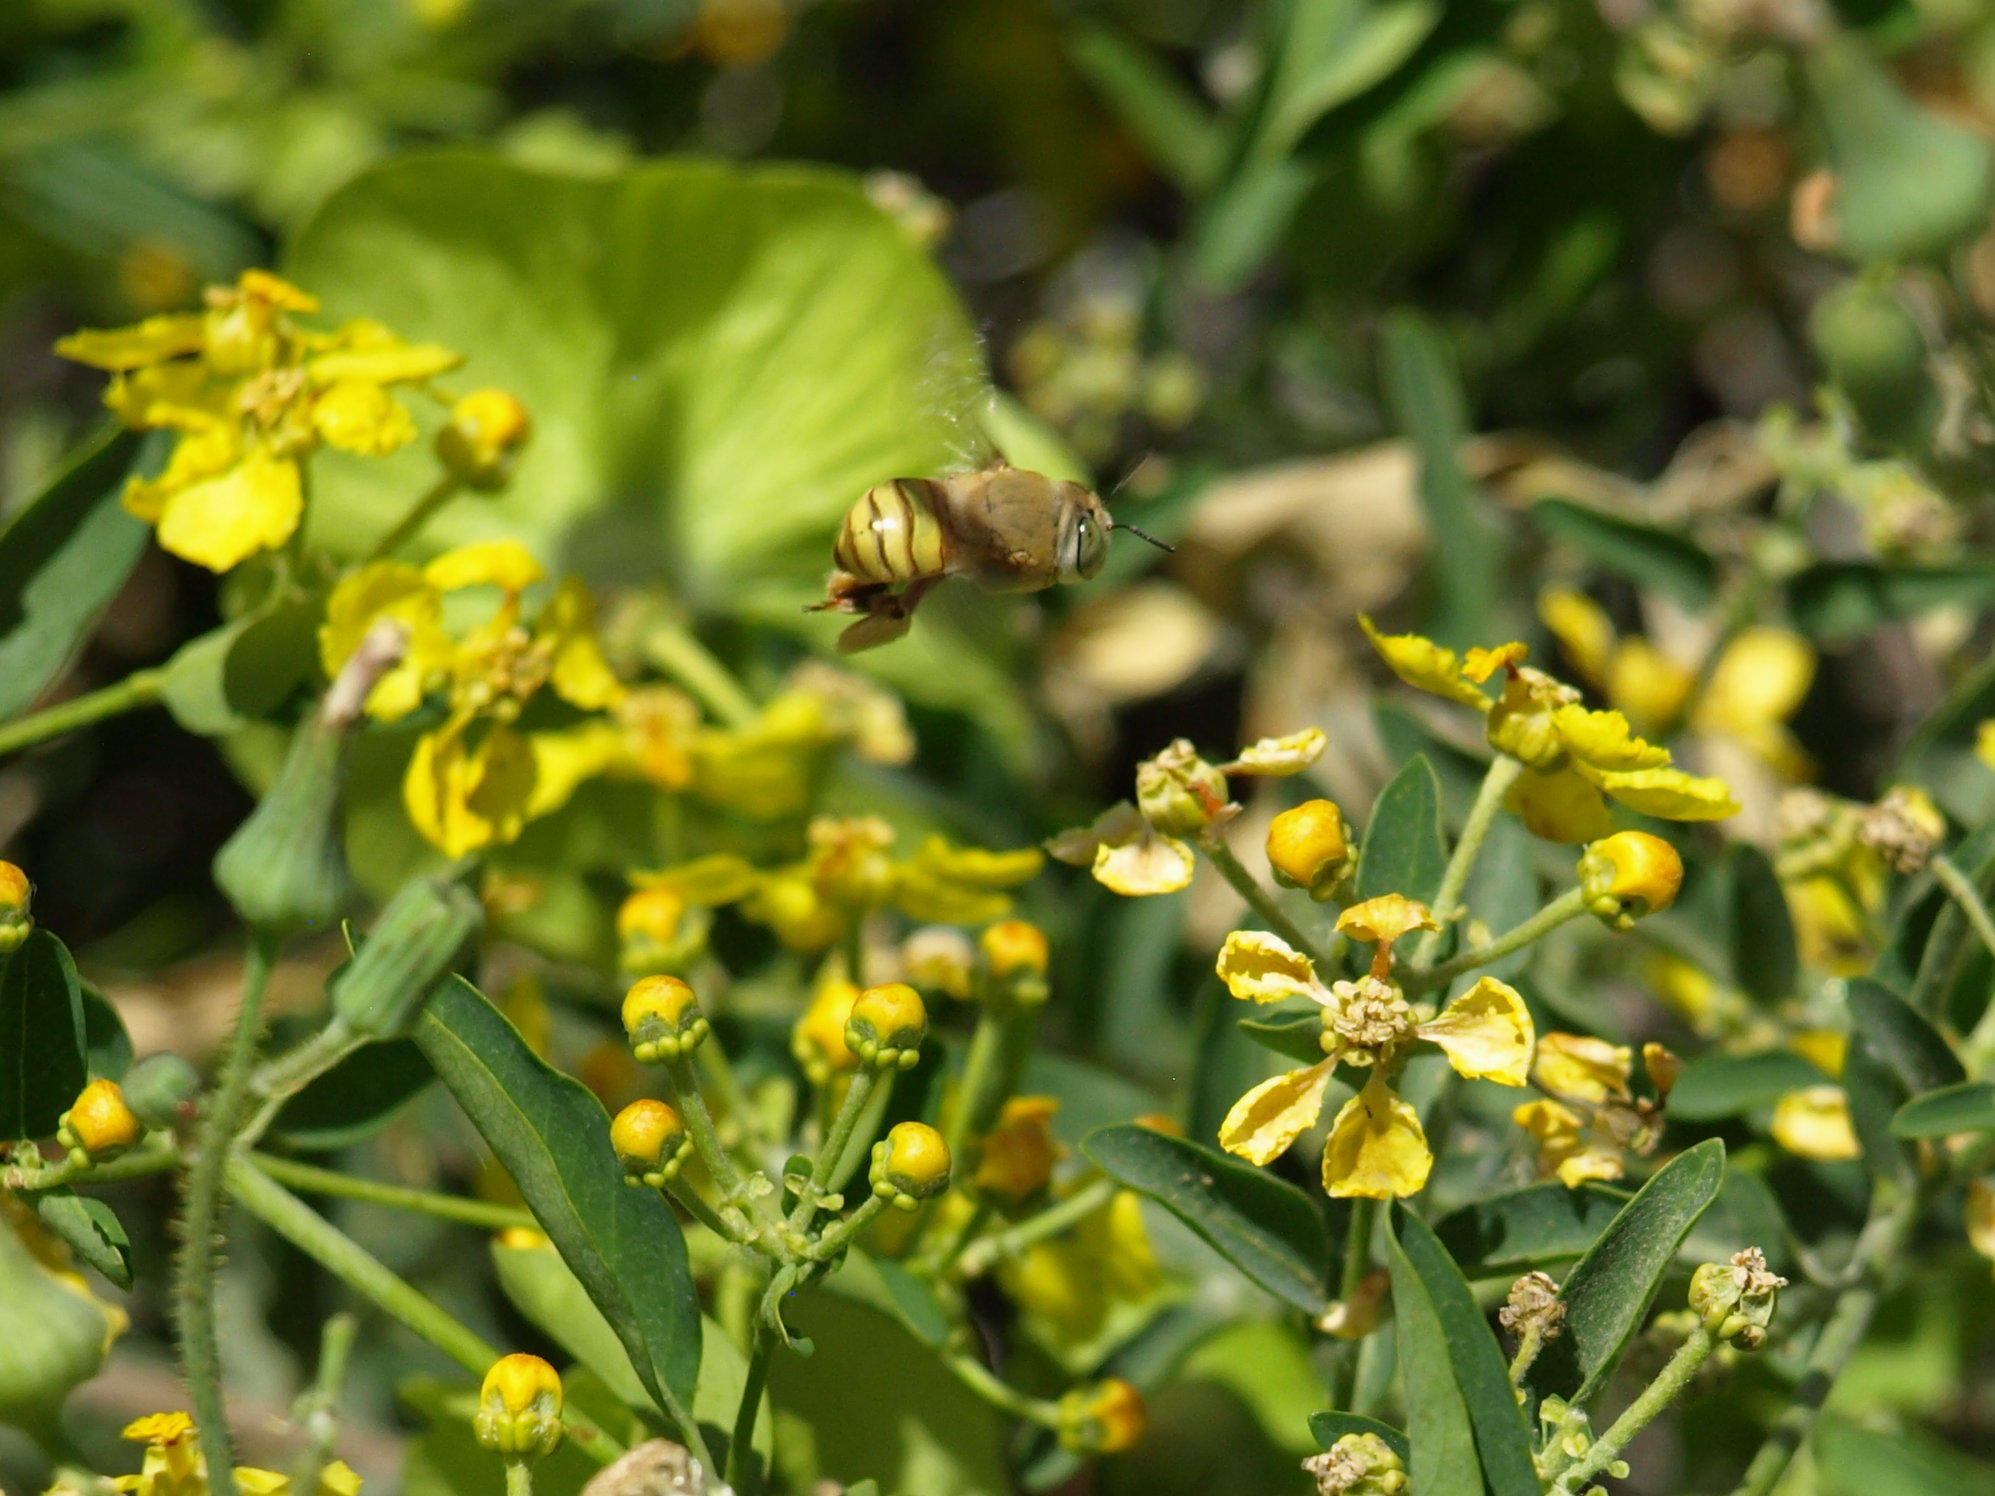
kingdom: Animalia
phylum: Arthropoda
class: Insecta
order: Hymenoptera
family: Apidae
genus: Centris
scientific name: Centris aethyctera
